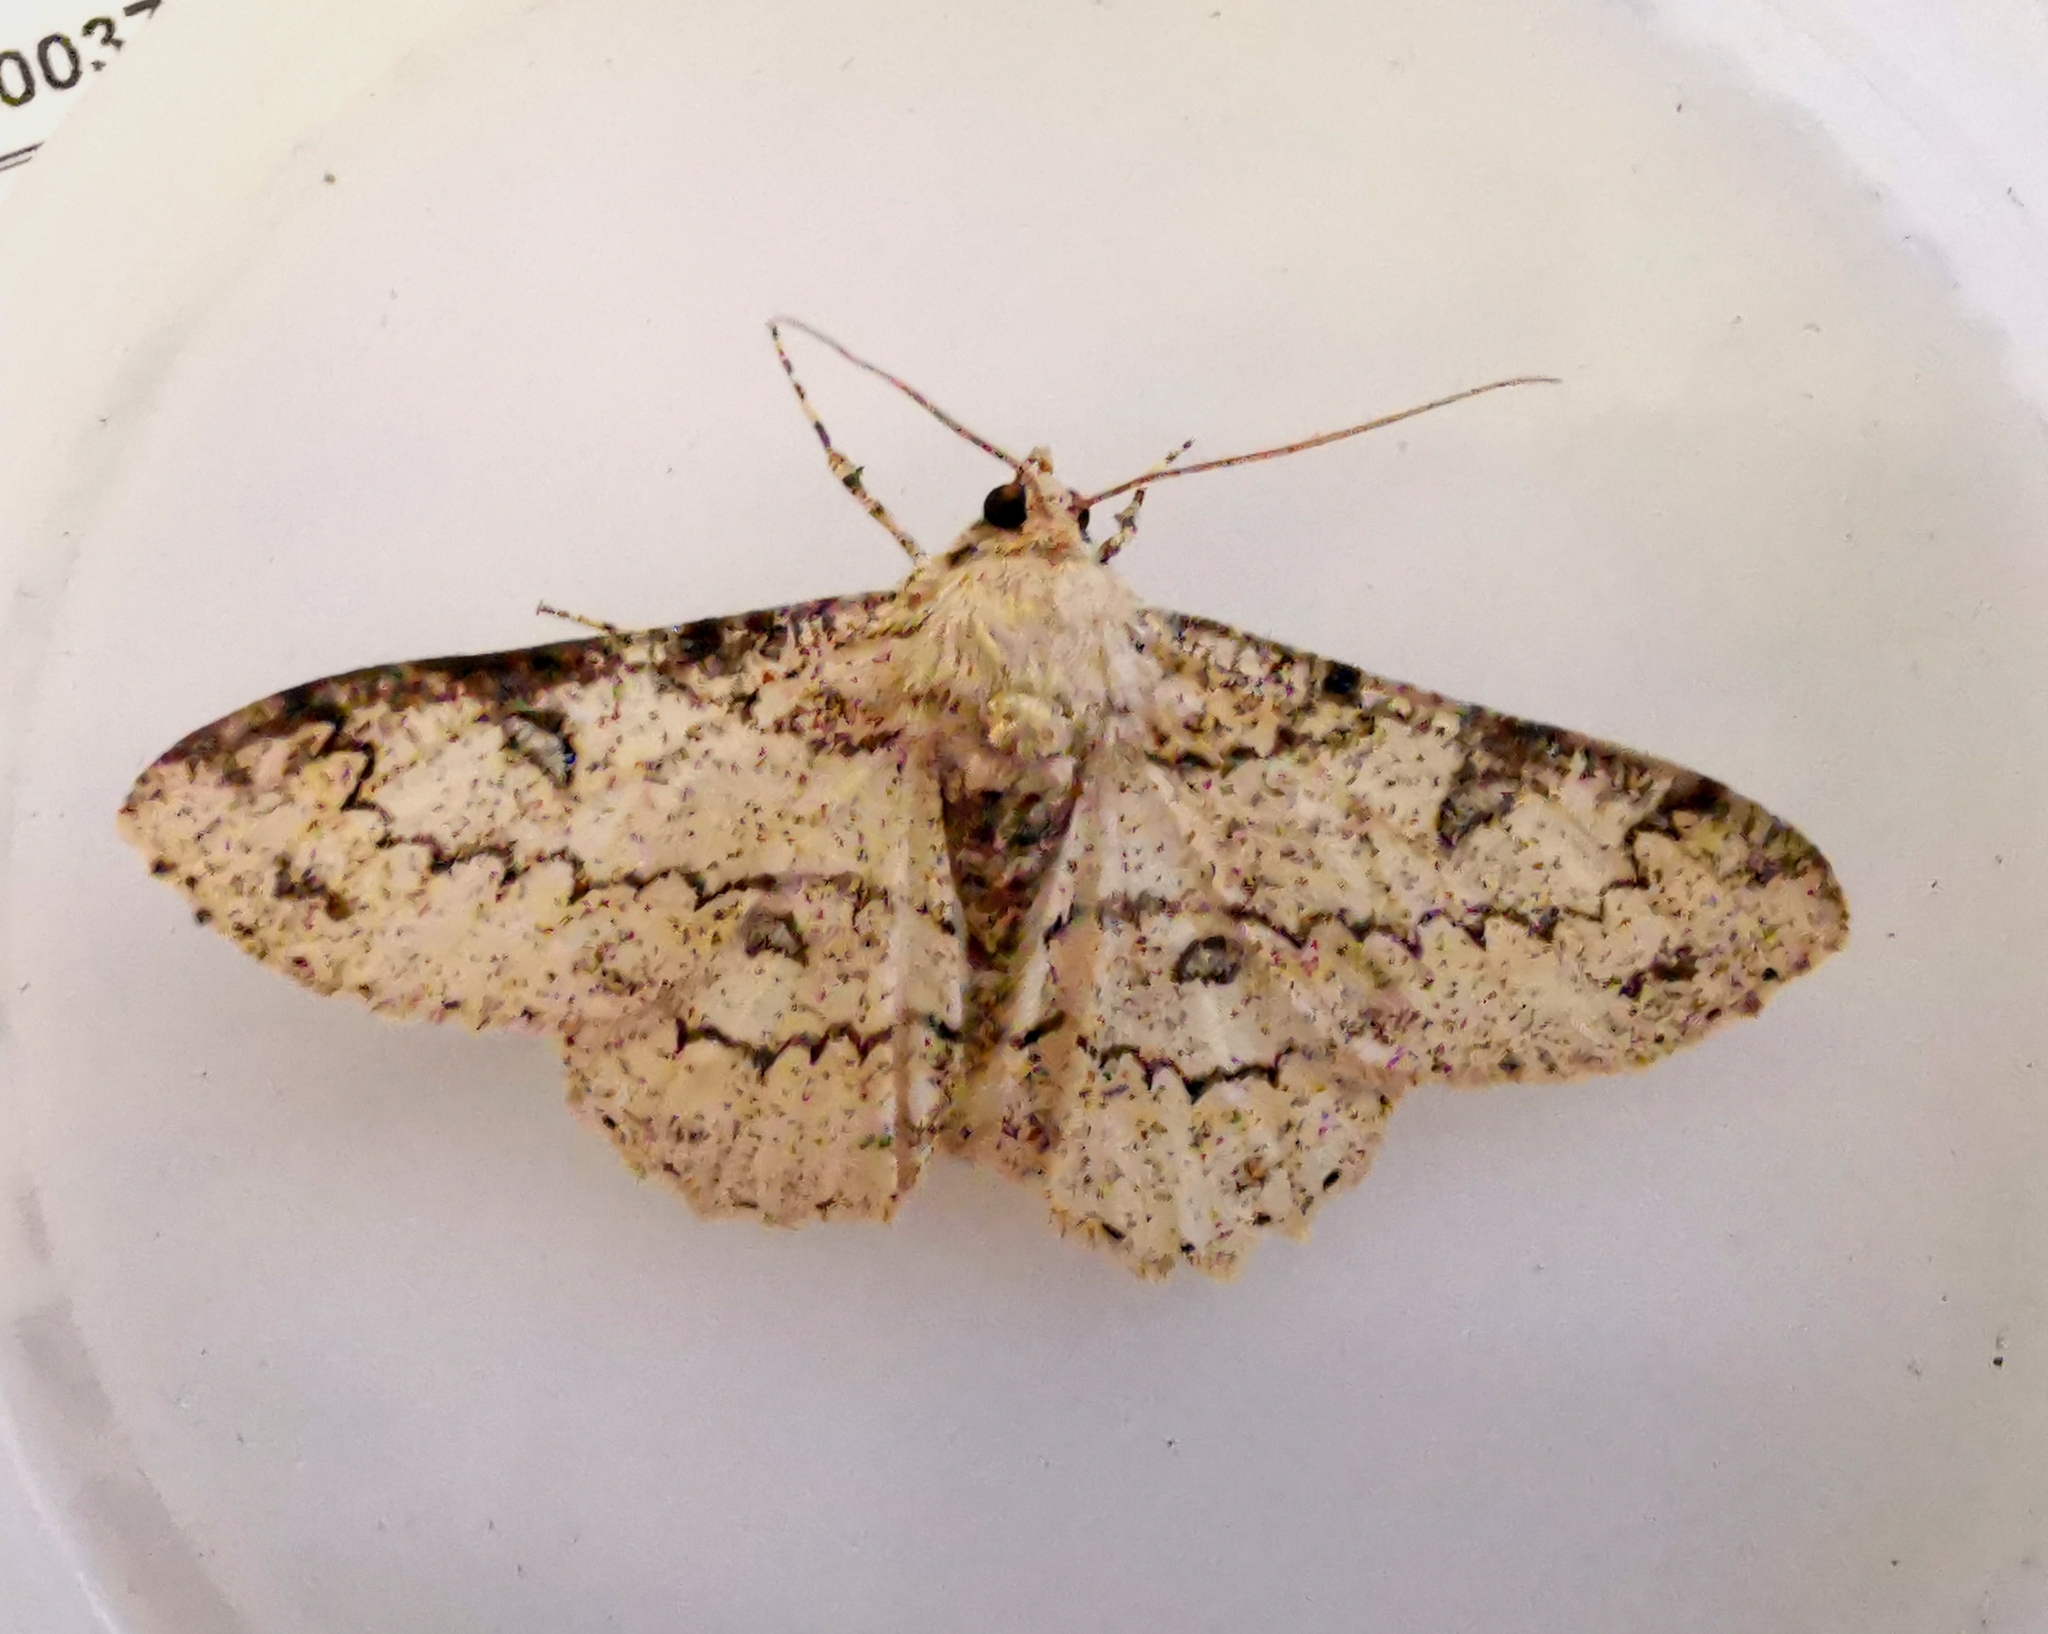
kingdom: Animalia
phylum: Arthropoda
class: Insecta
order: Lepidoptera
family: Geometridae
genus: Ascotis
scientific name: Ascotis selenaria
